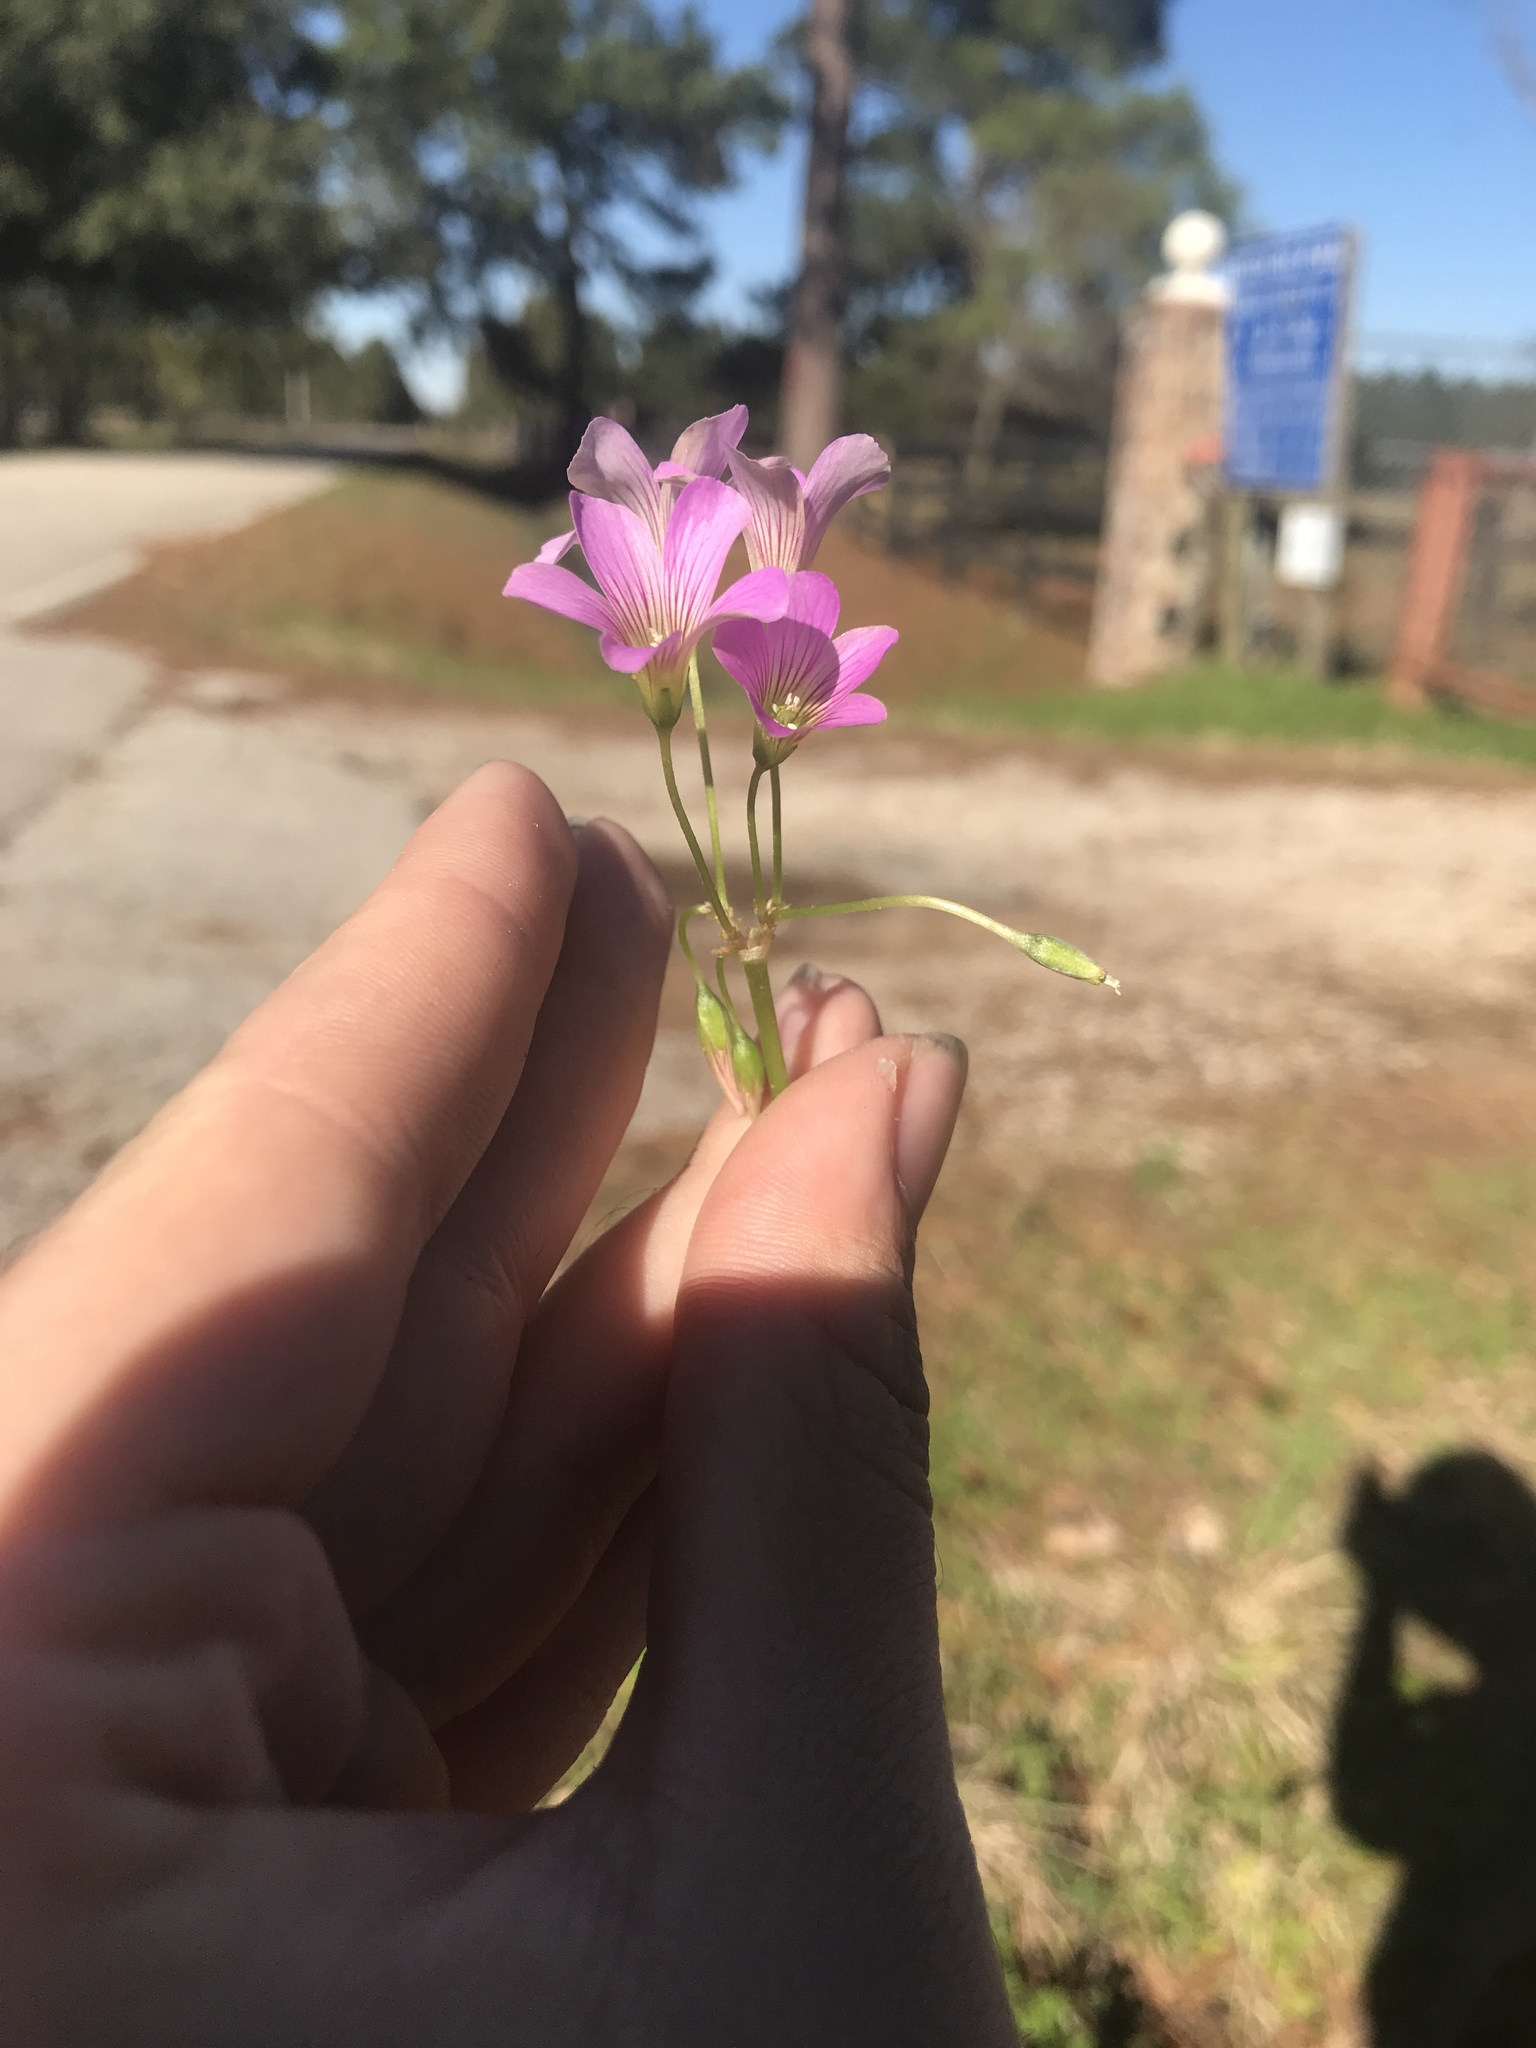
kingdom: Plantae
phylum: Tracheophyta
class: Magnoliopsida
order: Oxalidales
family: Oxalidaceae
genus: Oxalis
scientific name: Oxalis debilis
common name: Large-flowered pink-sorrel
